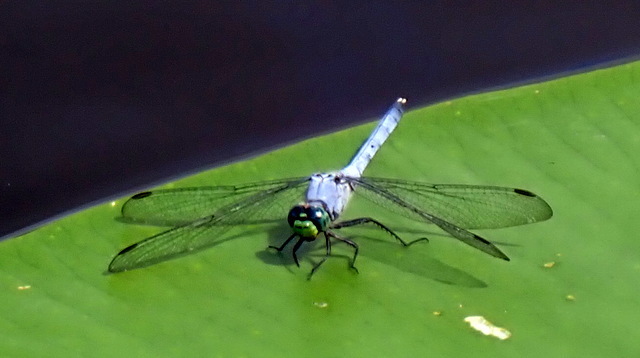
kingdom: Animalia
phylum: Arthropoda
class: Insecta
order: Odonata
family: Libellulidae
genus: Erythemis
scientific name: Erythemis simplicicollis
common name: Eastern pondhawk
